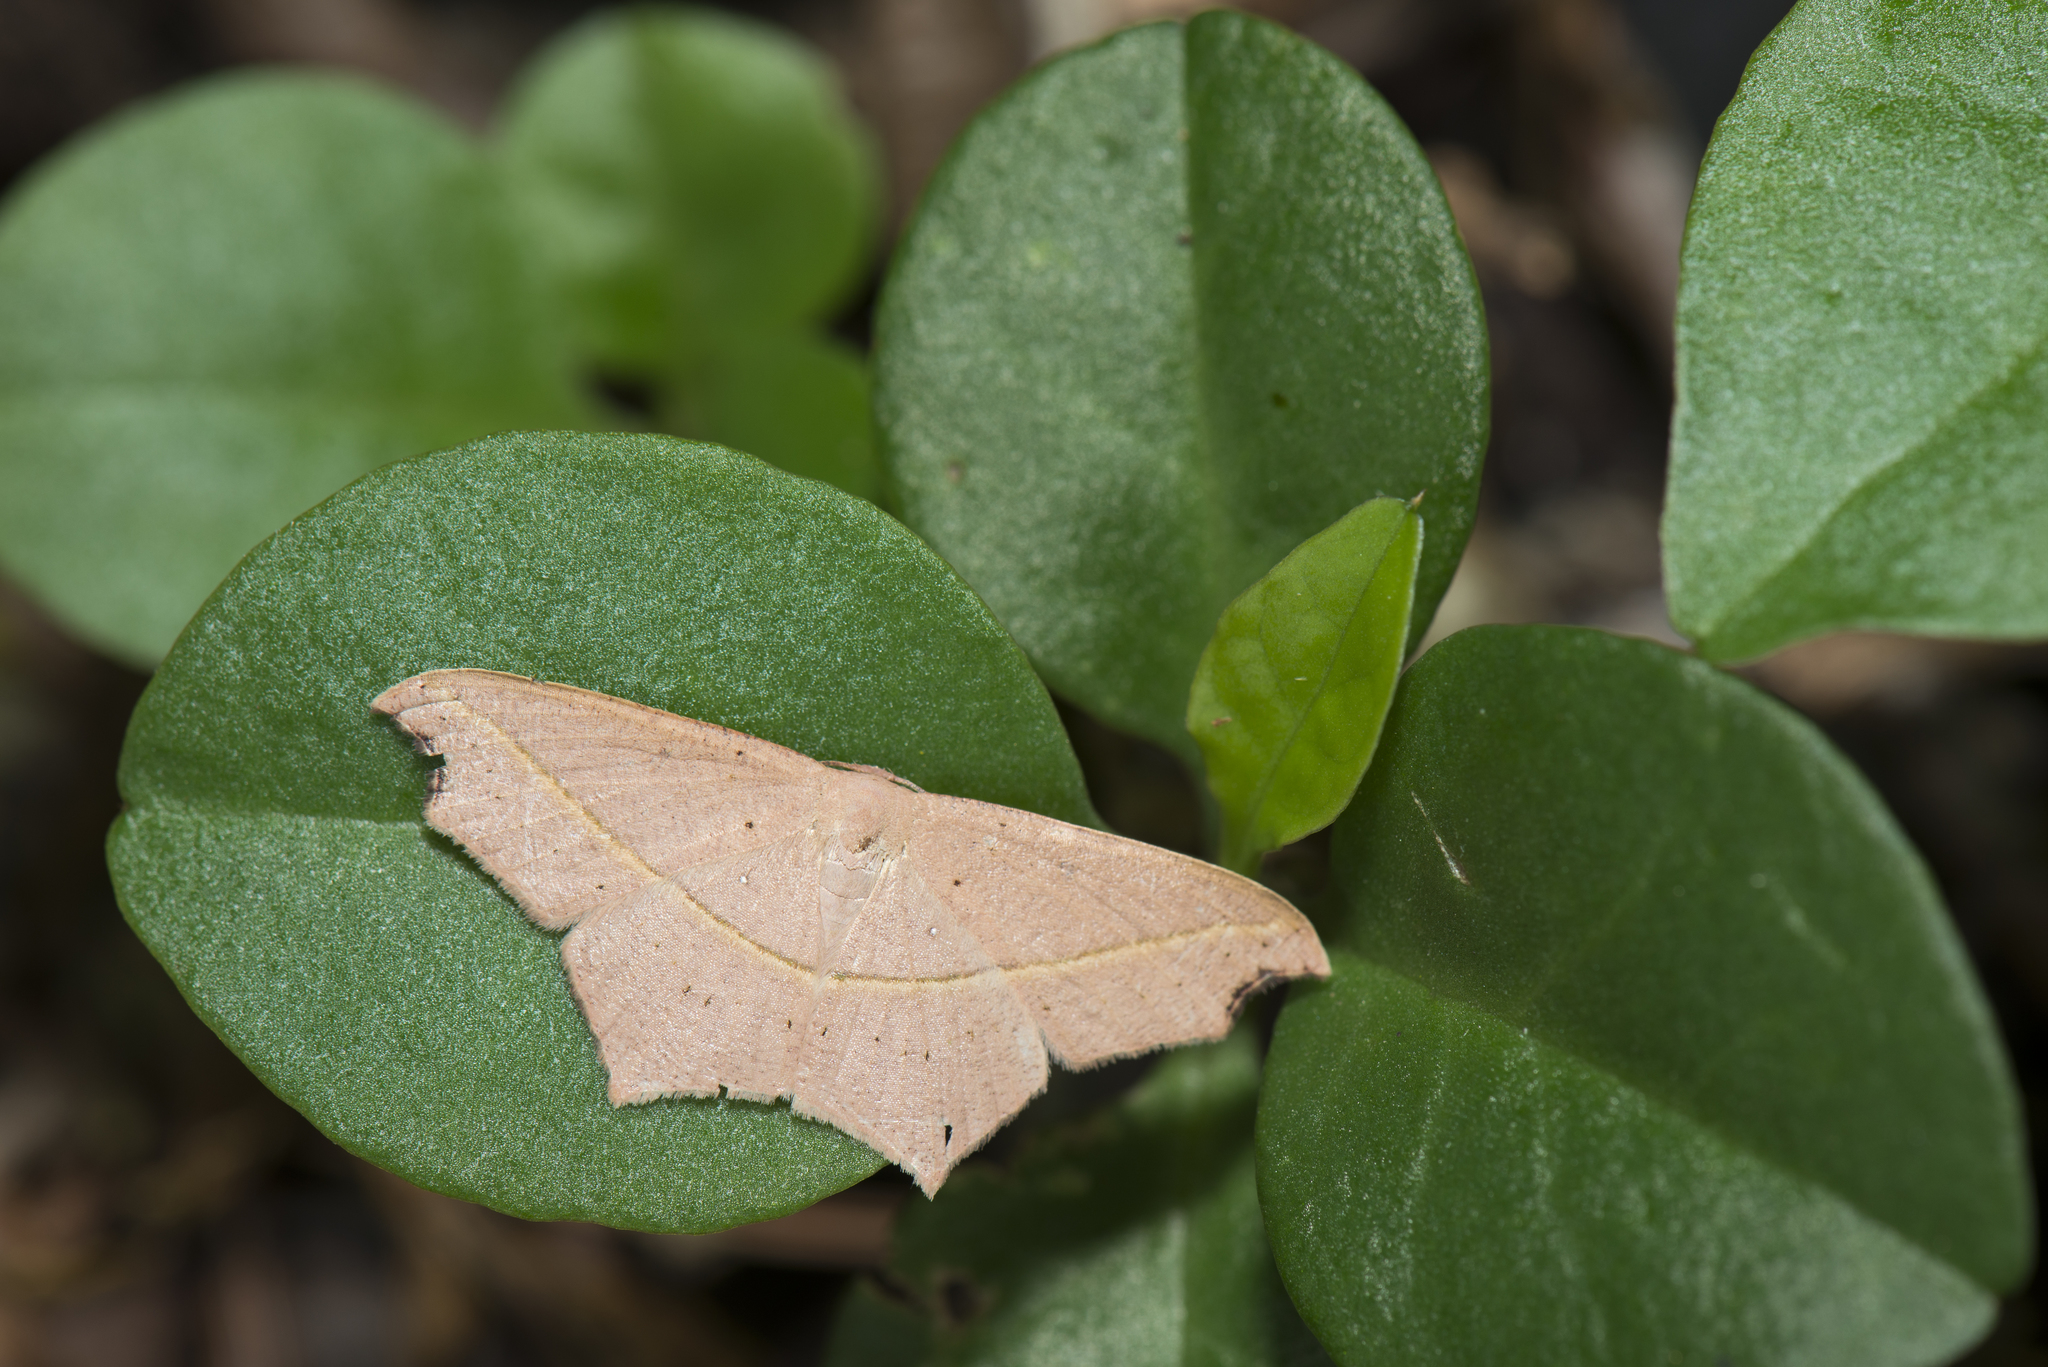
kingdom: Animalia
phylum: Arthropoda
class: Insecta
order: Lepidoptera
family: Geometridae
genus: Traminda
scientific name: Traminda aventiaria
